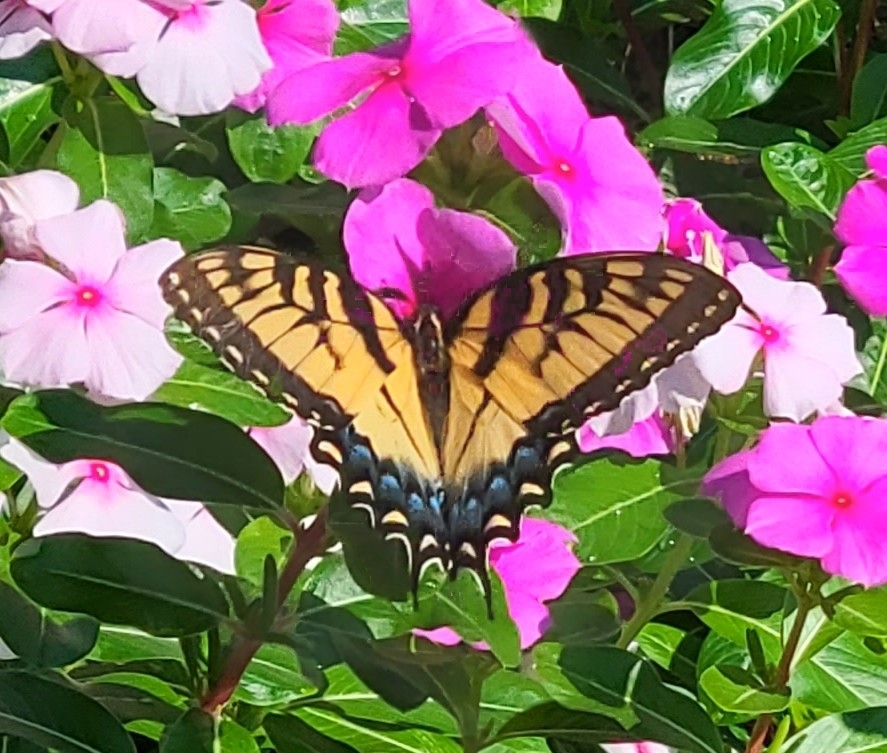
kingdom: Animalia
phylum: Arthropoda
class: Insecta
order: Lepidoptera
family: Papilionidae
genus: Papilio
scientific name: Papilio glaucus
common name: Tiger swallowtail
